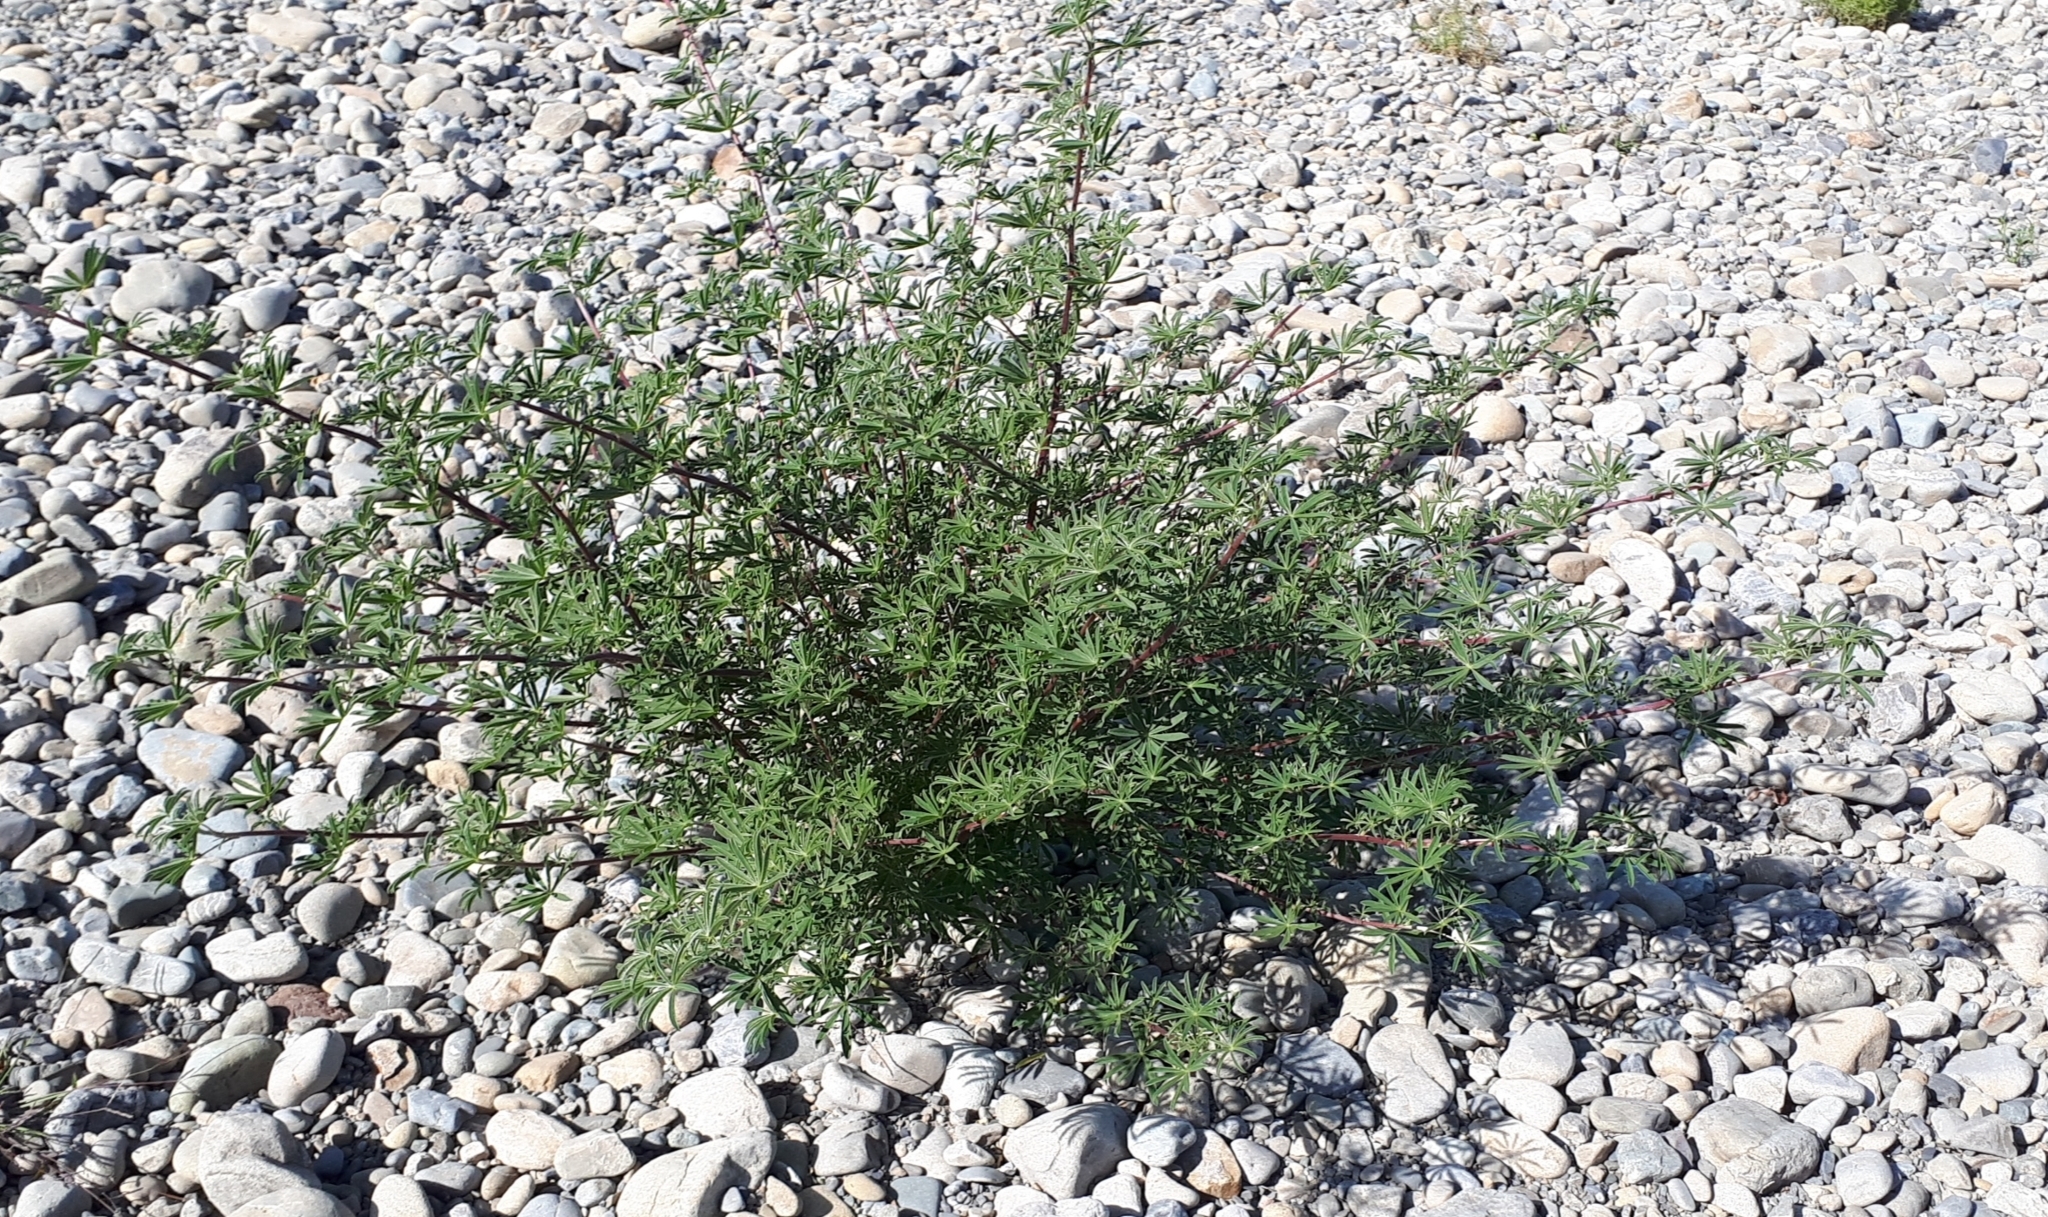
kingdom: Plantae
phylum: Tracheophyta
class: Magnoliopsida
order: Fabales
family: Fabaceae
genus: Lupinus
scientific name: Lupinus arboreus
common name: Yellow bush lupine
